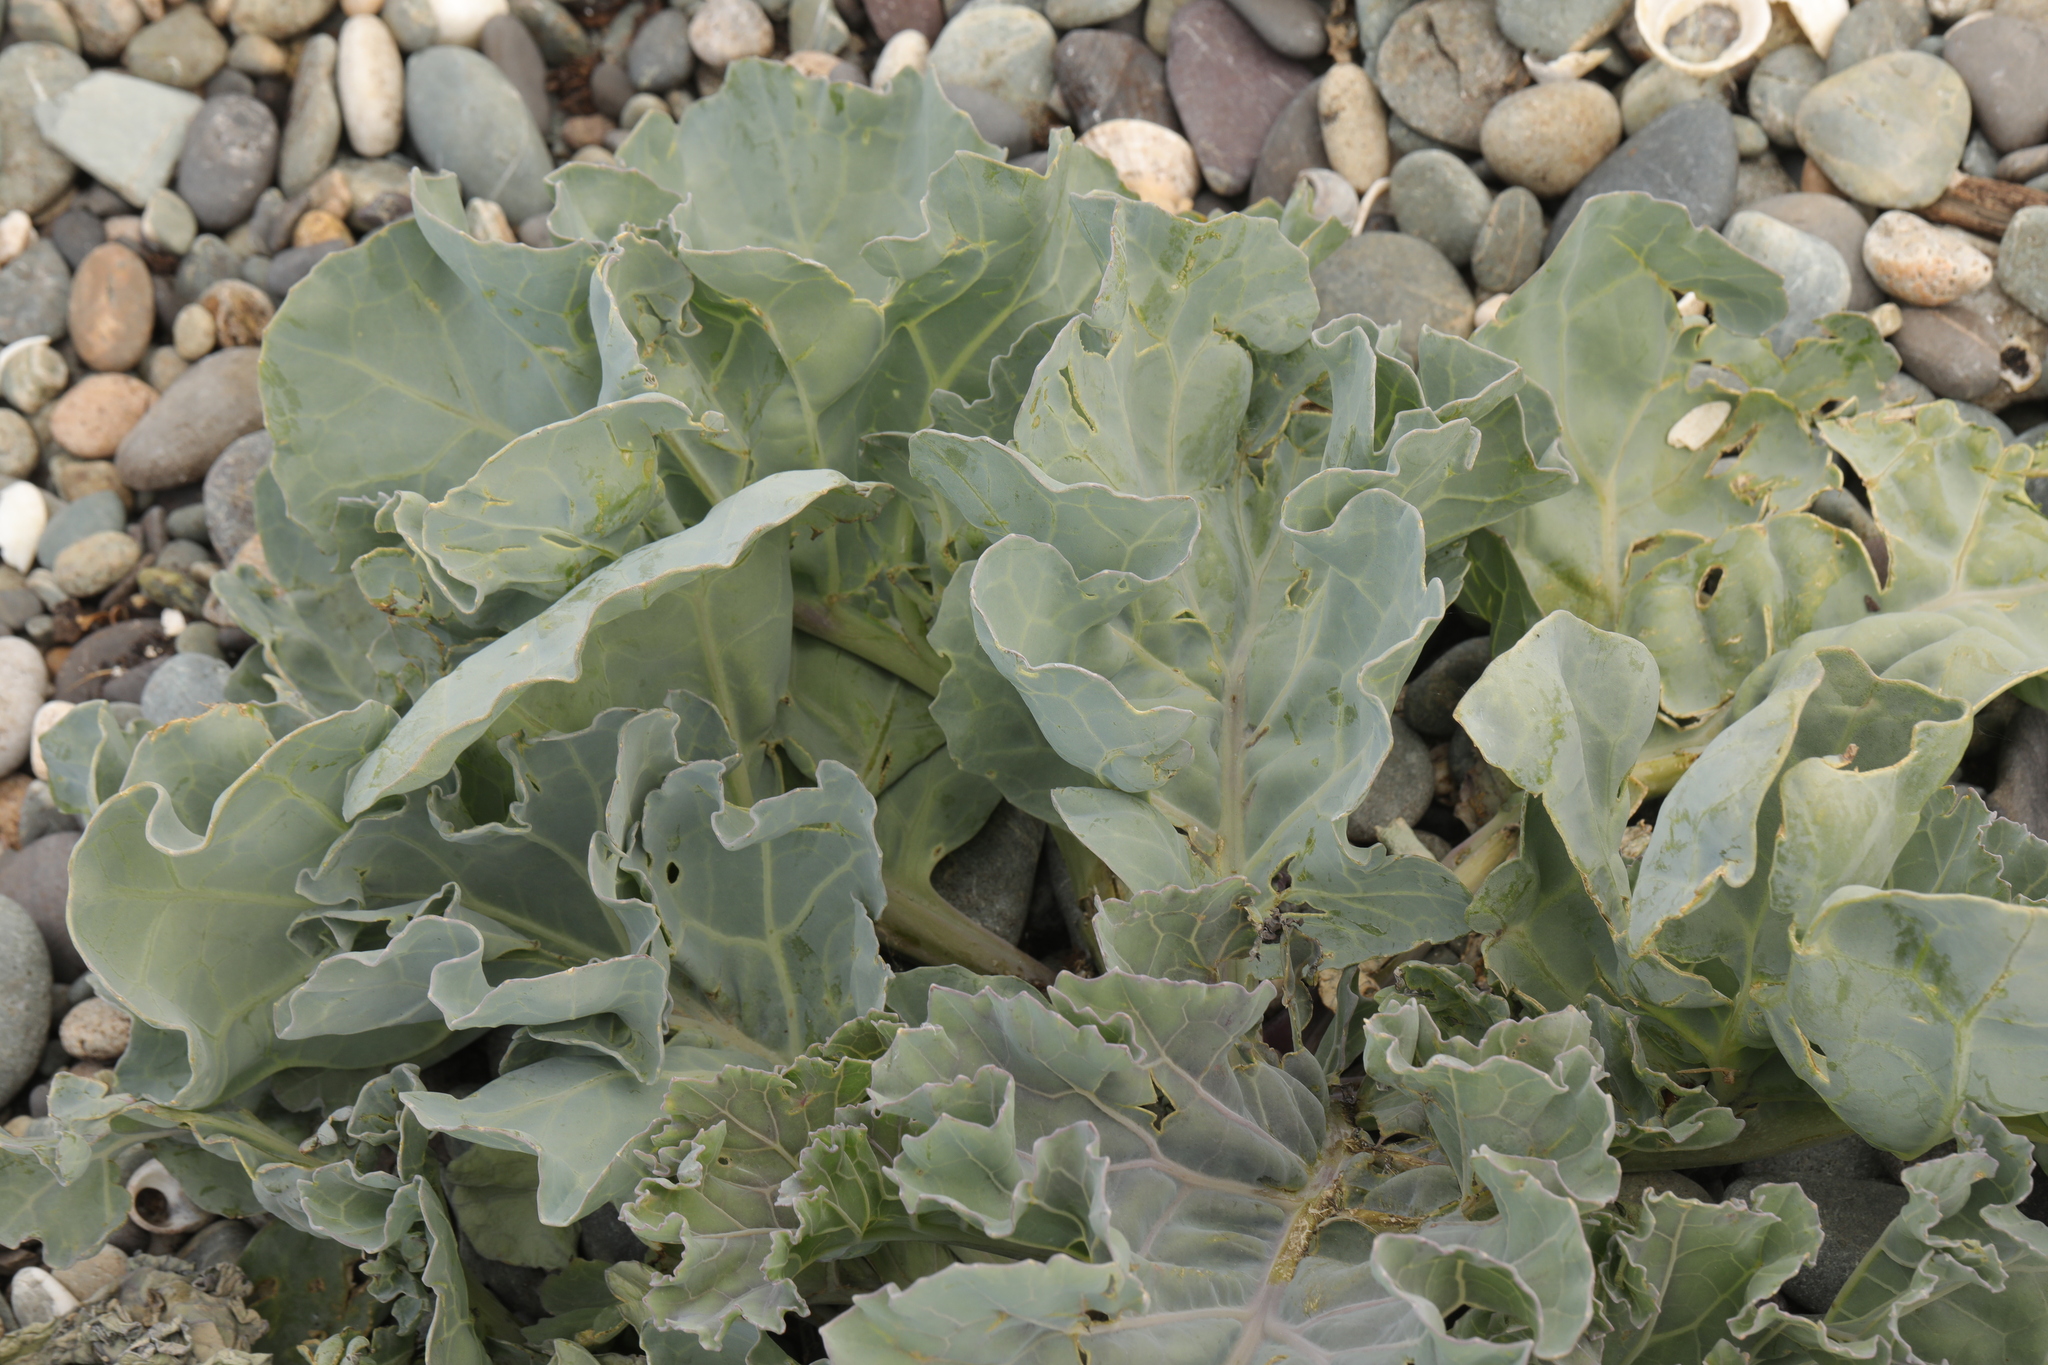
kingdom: Plantae
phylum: Tracheophyta
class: Magnoliopsida
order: Brassicales
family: Brassicaceae
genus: Crambe
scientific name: Crambe maritima
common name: Sea-kale
